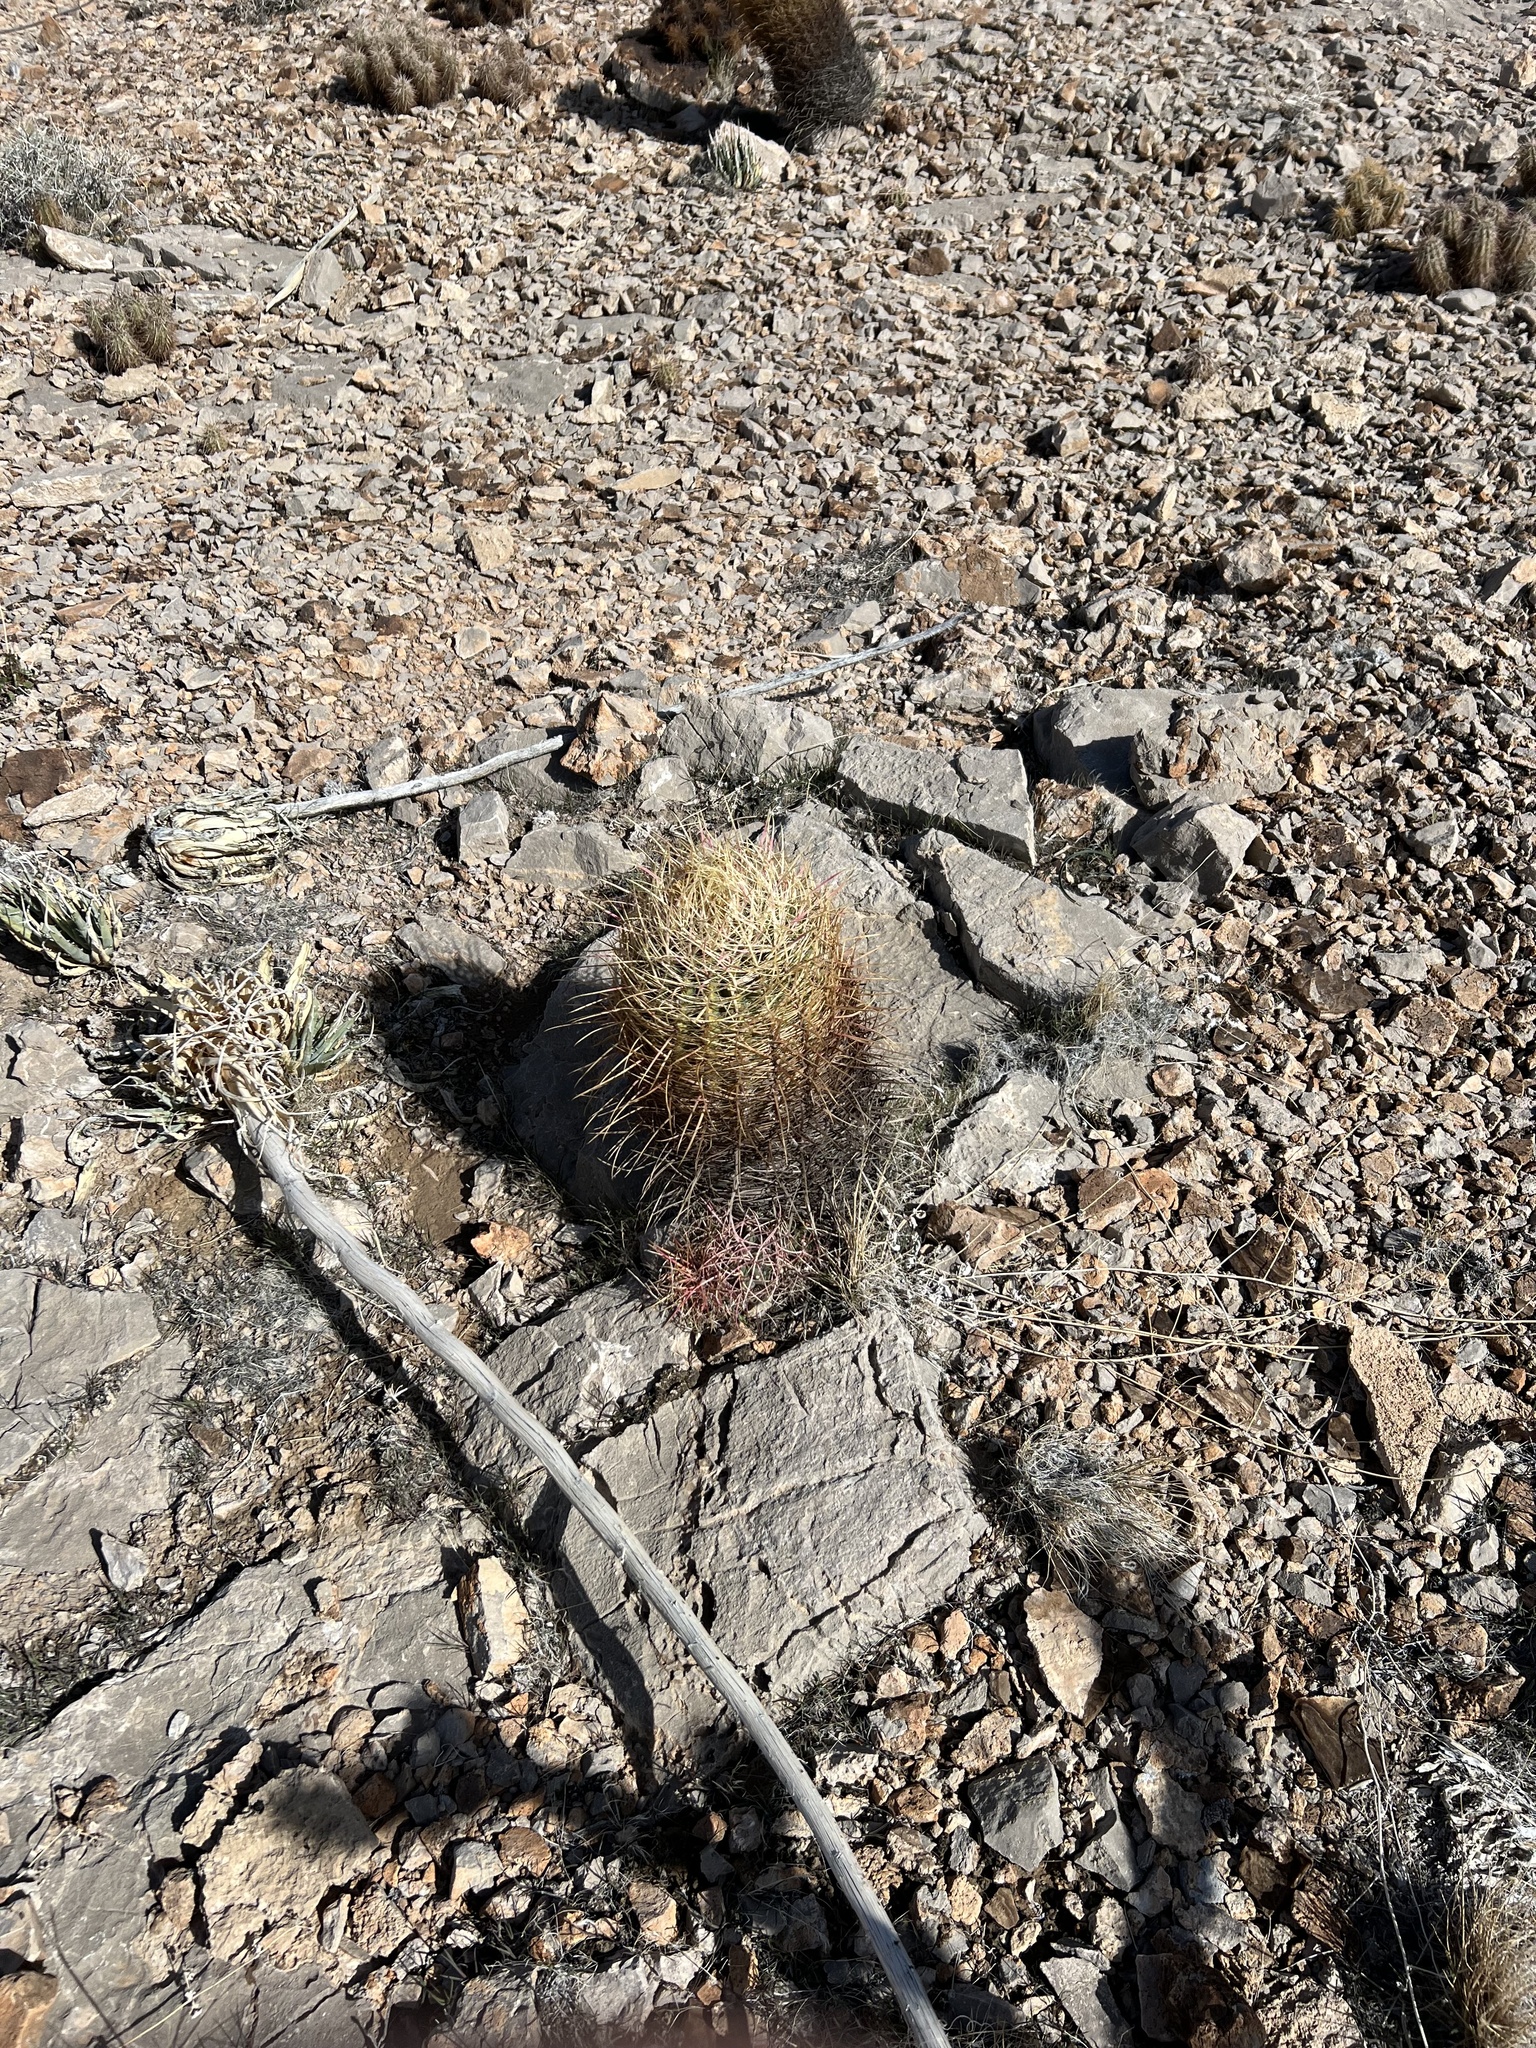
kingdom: Plantae
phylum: Tracheophyta
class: Magnoliopsida
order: Caryophyllales
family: Cactaceae
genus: Ferocactus
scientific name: Ferocactus cylindraceus
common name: California barrel cactus
